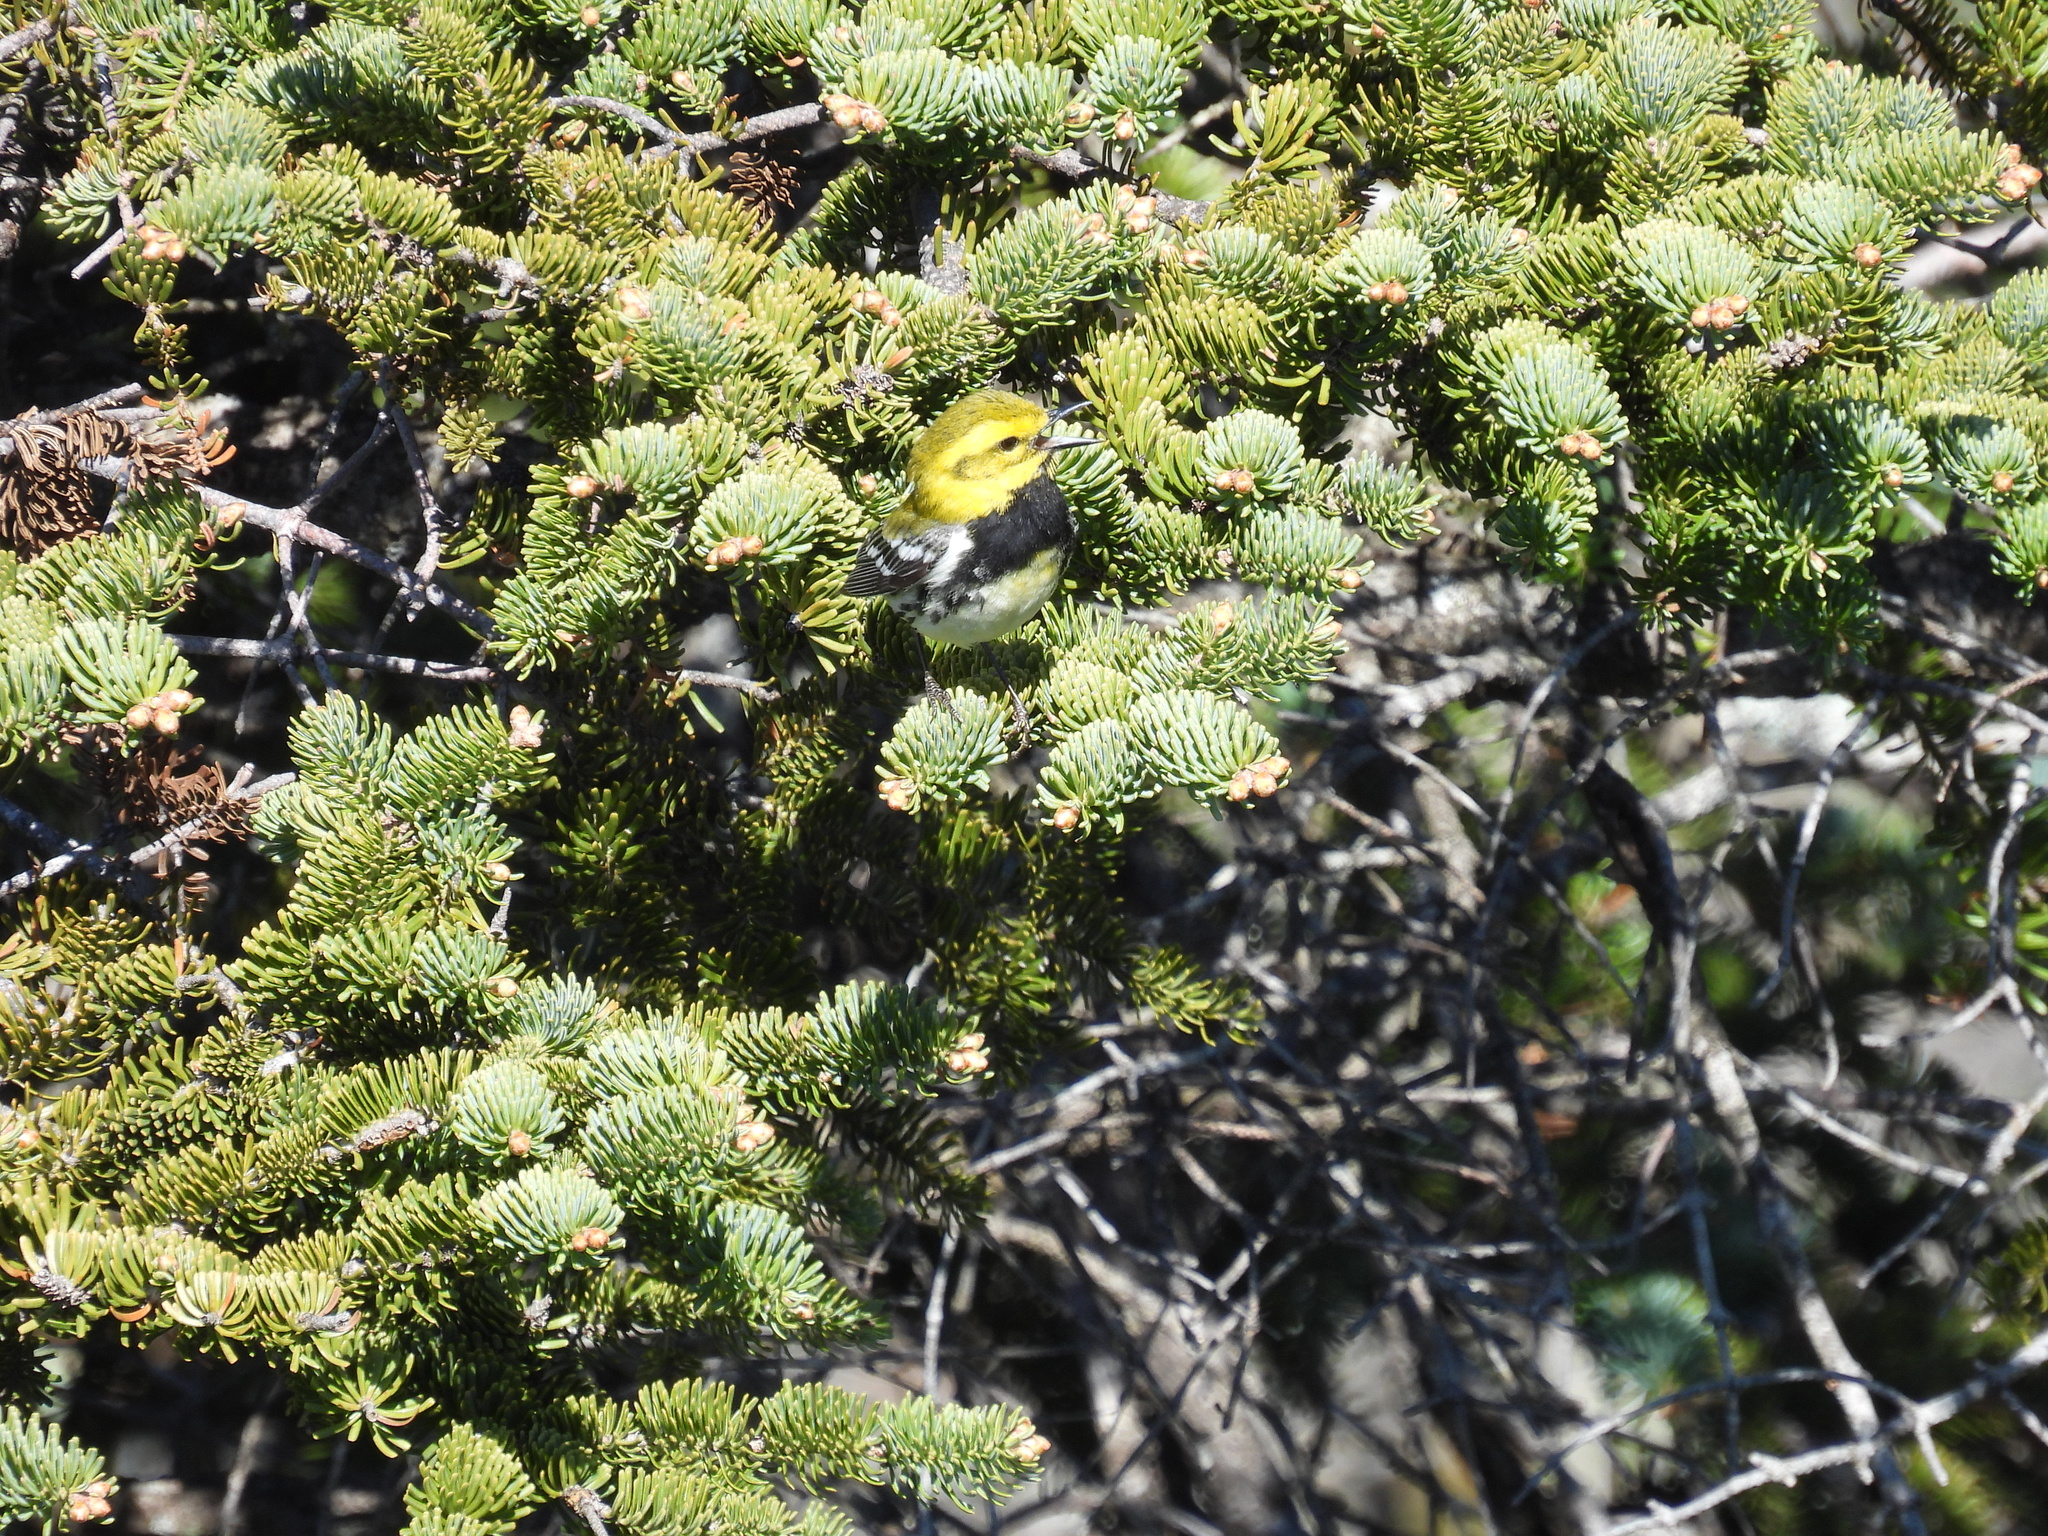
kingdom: Animalia
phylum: Chordata
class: Aves
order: Passeriformes
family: Parulidae
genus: Setophaga
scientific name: Setophaga virens
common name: Black-throated green warbler
